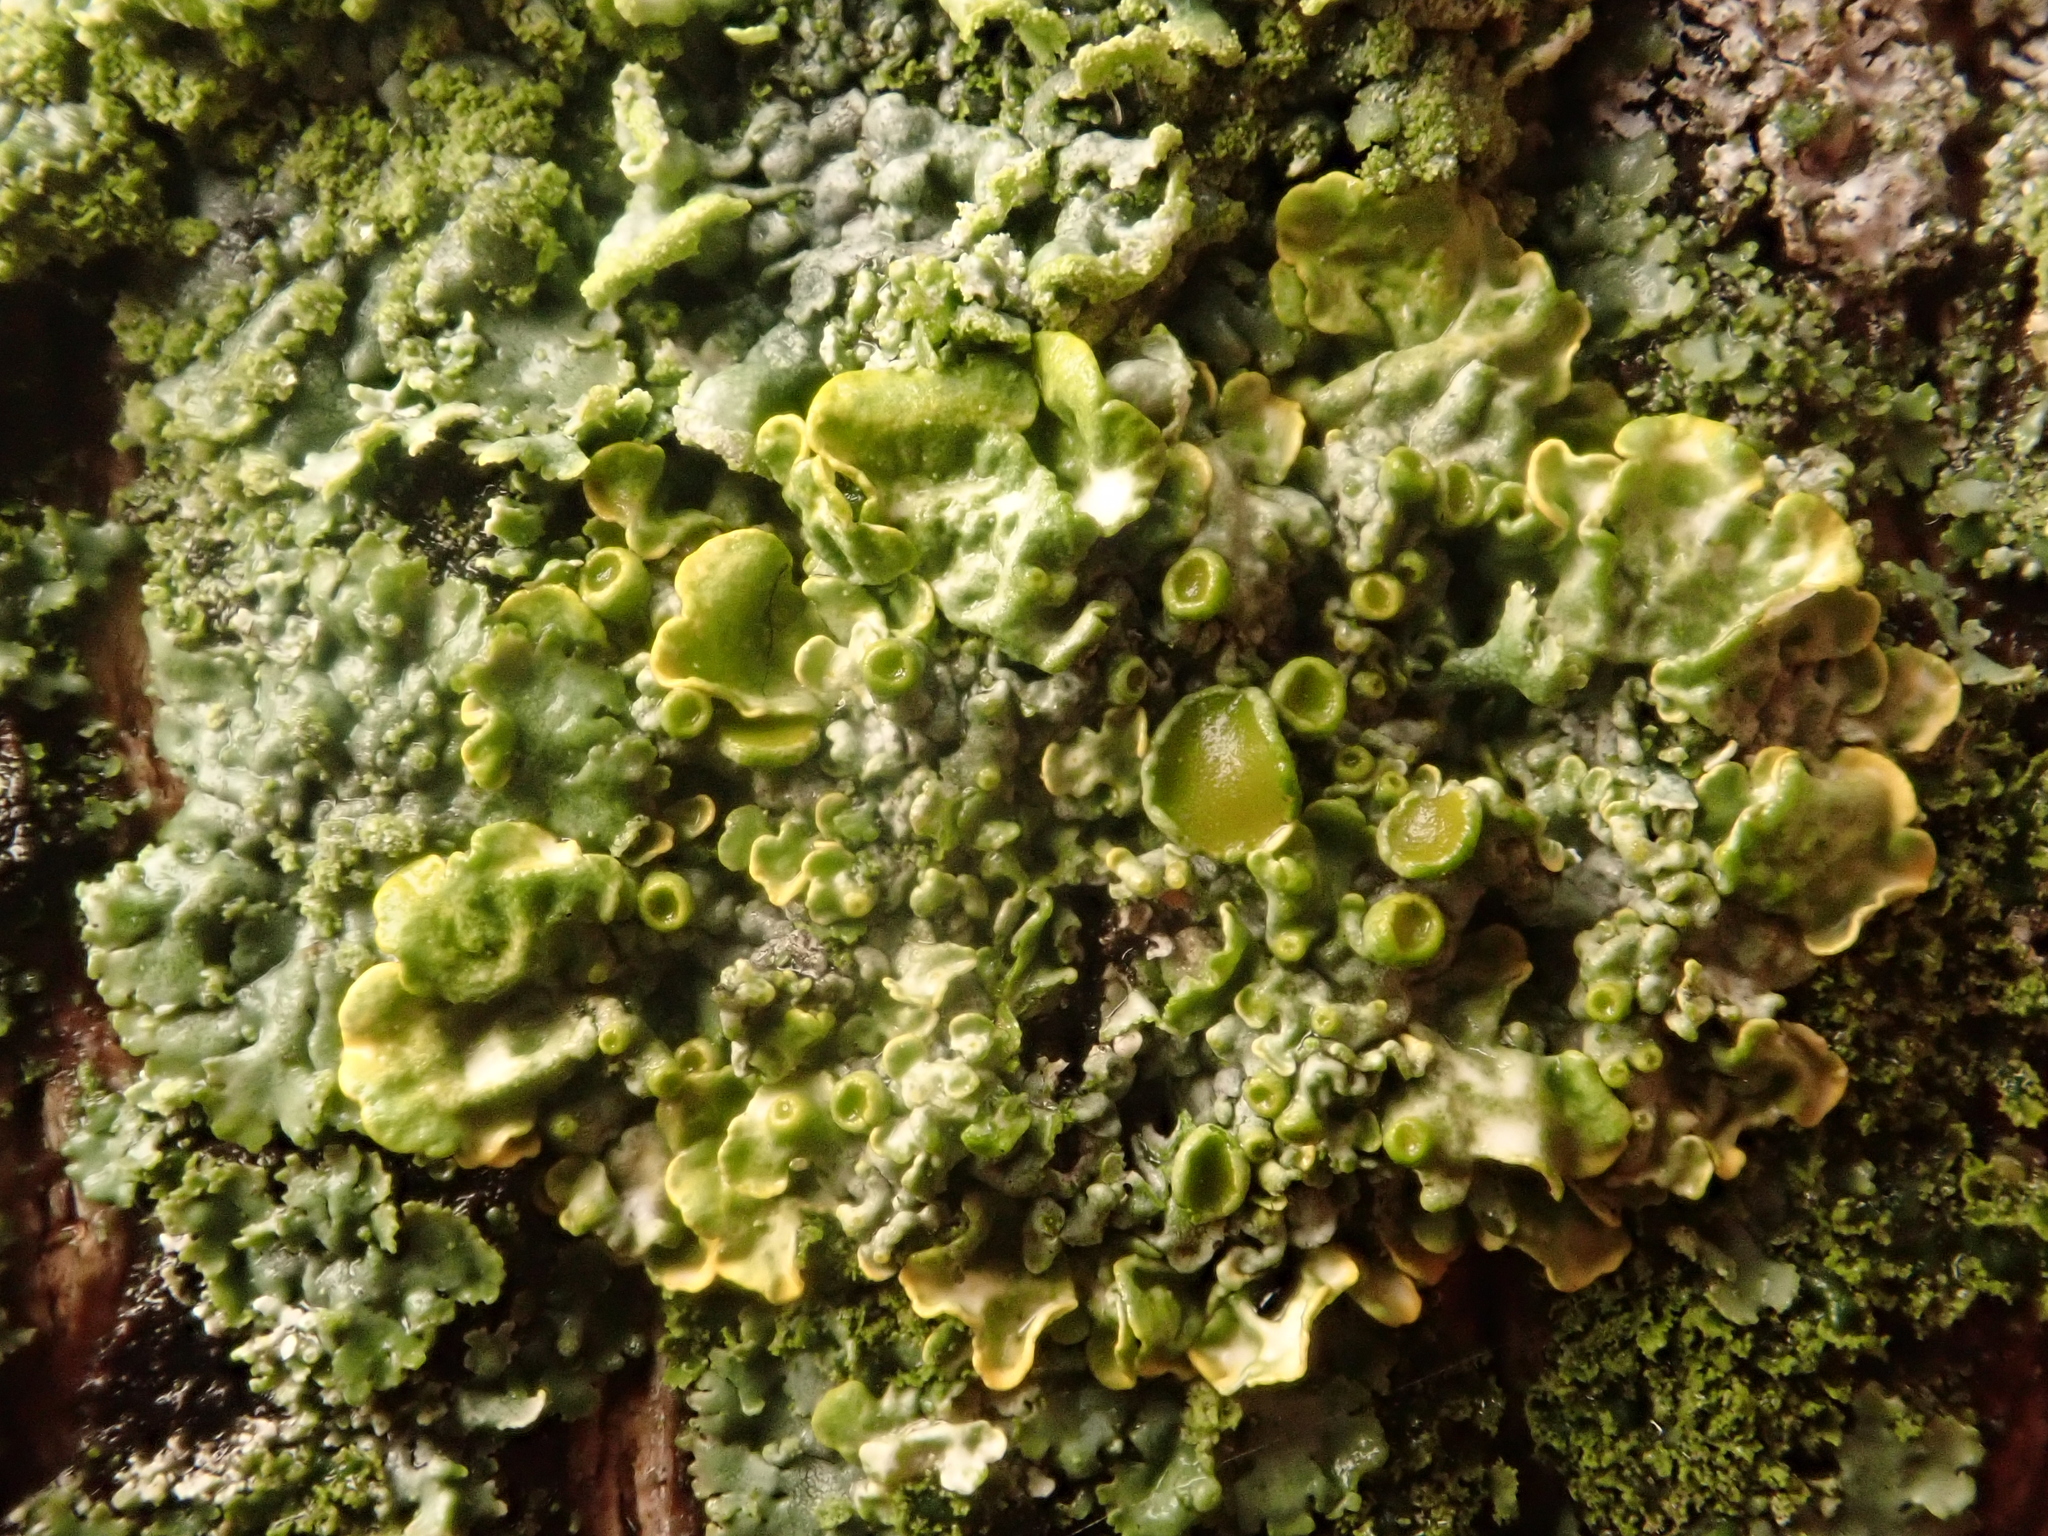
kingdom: Fungi
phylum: Ascomycota
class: Lecanoromycetes
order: Teloschistales
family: Teloschistaceae
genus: Xanthoria
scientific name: Xanthoria parietina
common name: Common orange lichen
